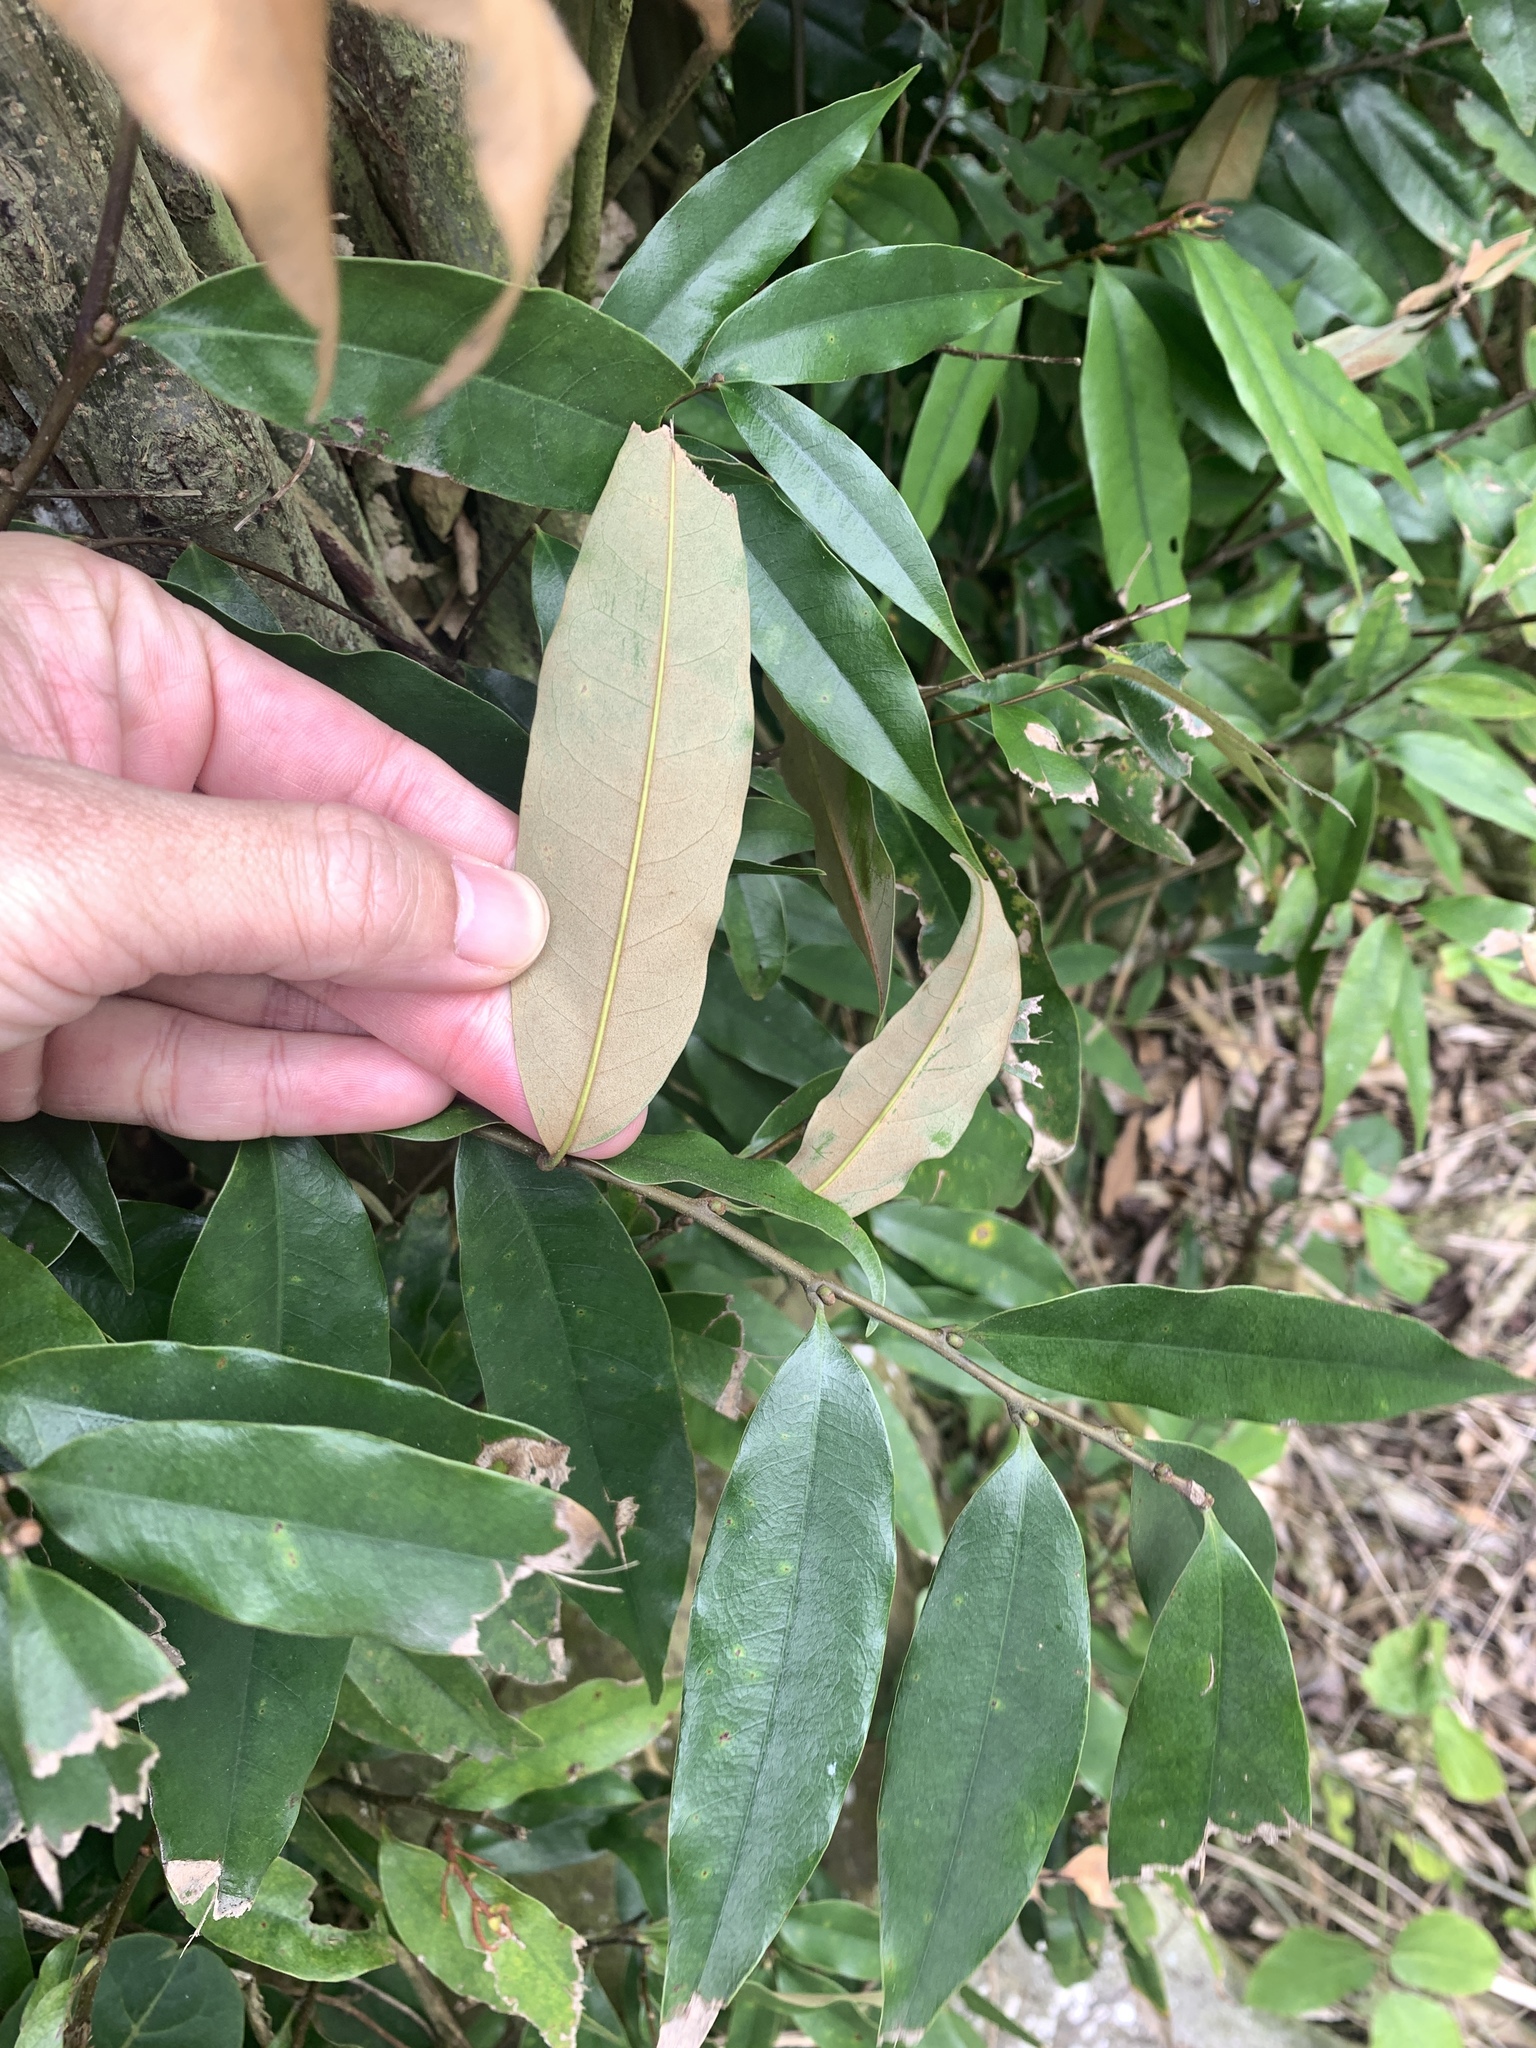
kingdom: Plantae
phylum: Tracheophyta
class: Magnoliopsida
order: Fagales
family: Fagaceae
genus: Castanopsis
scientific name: Castanopsis fargesii
